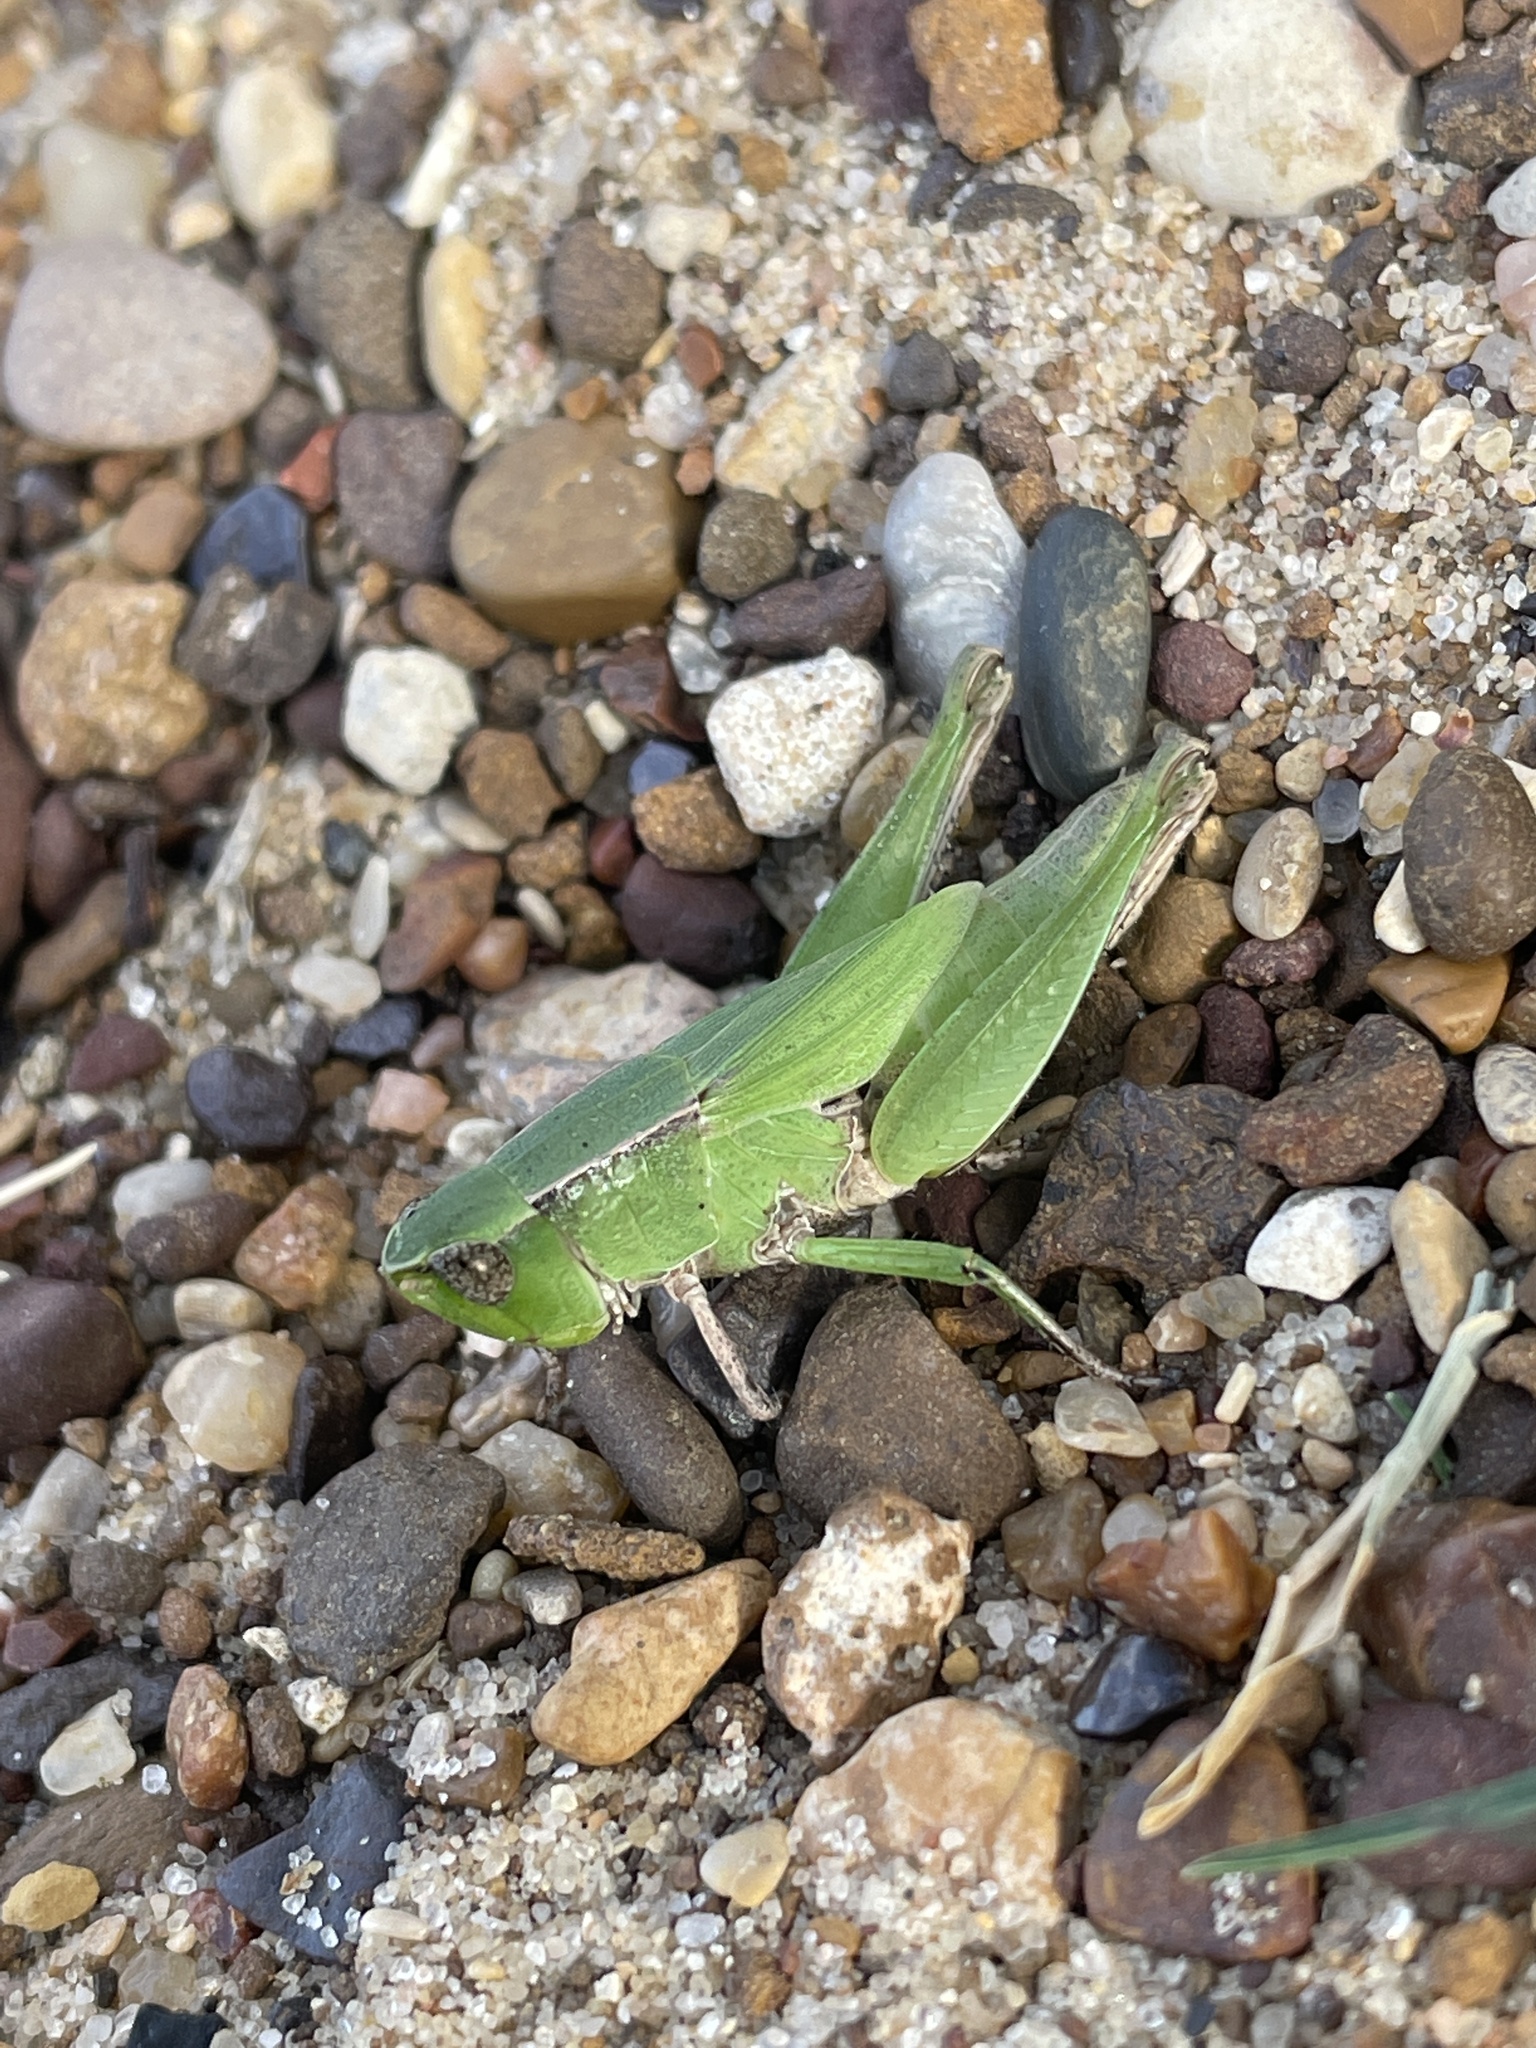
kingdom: Animalia
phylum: Arthropoda
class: Insecta
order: Orthoptera
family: Acrididae
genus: Dichromorpha
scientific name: Dichromorpha viridis
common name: Short-winged green grasshopper
